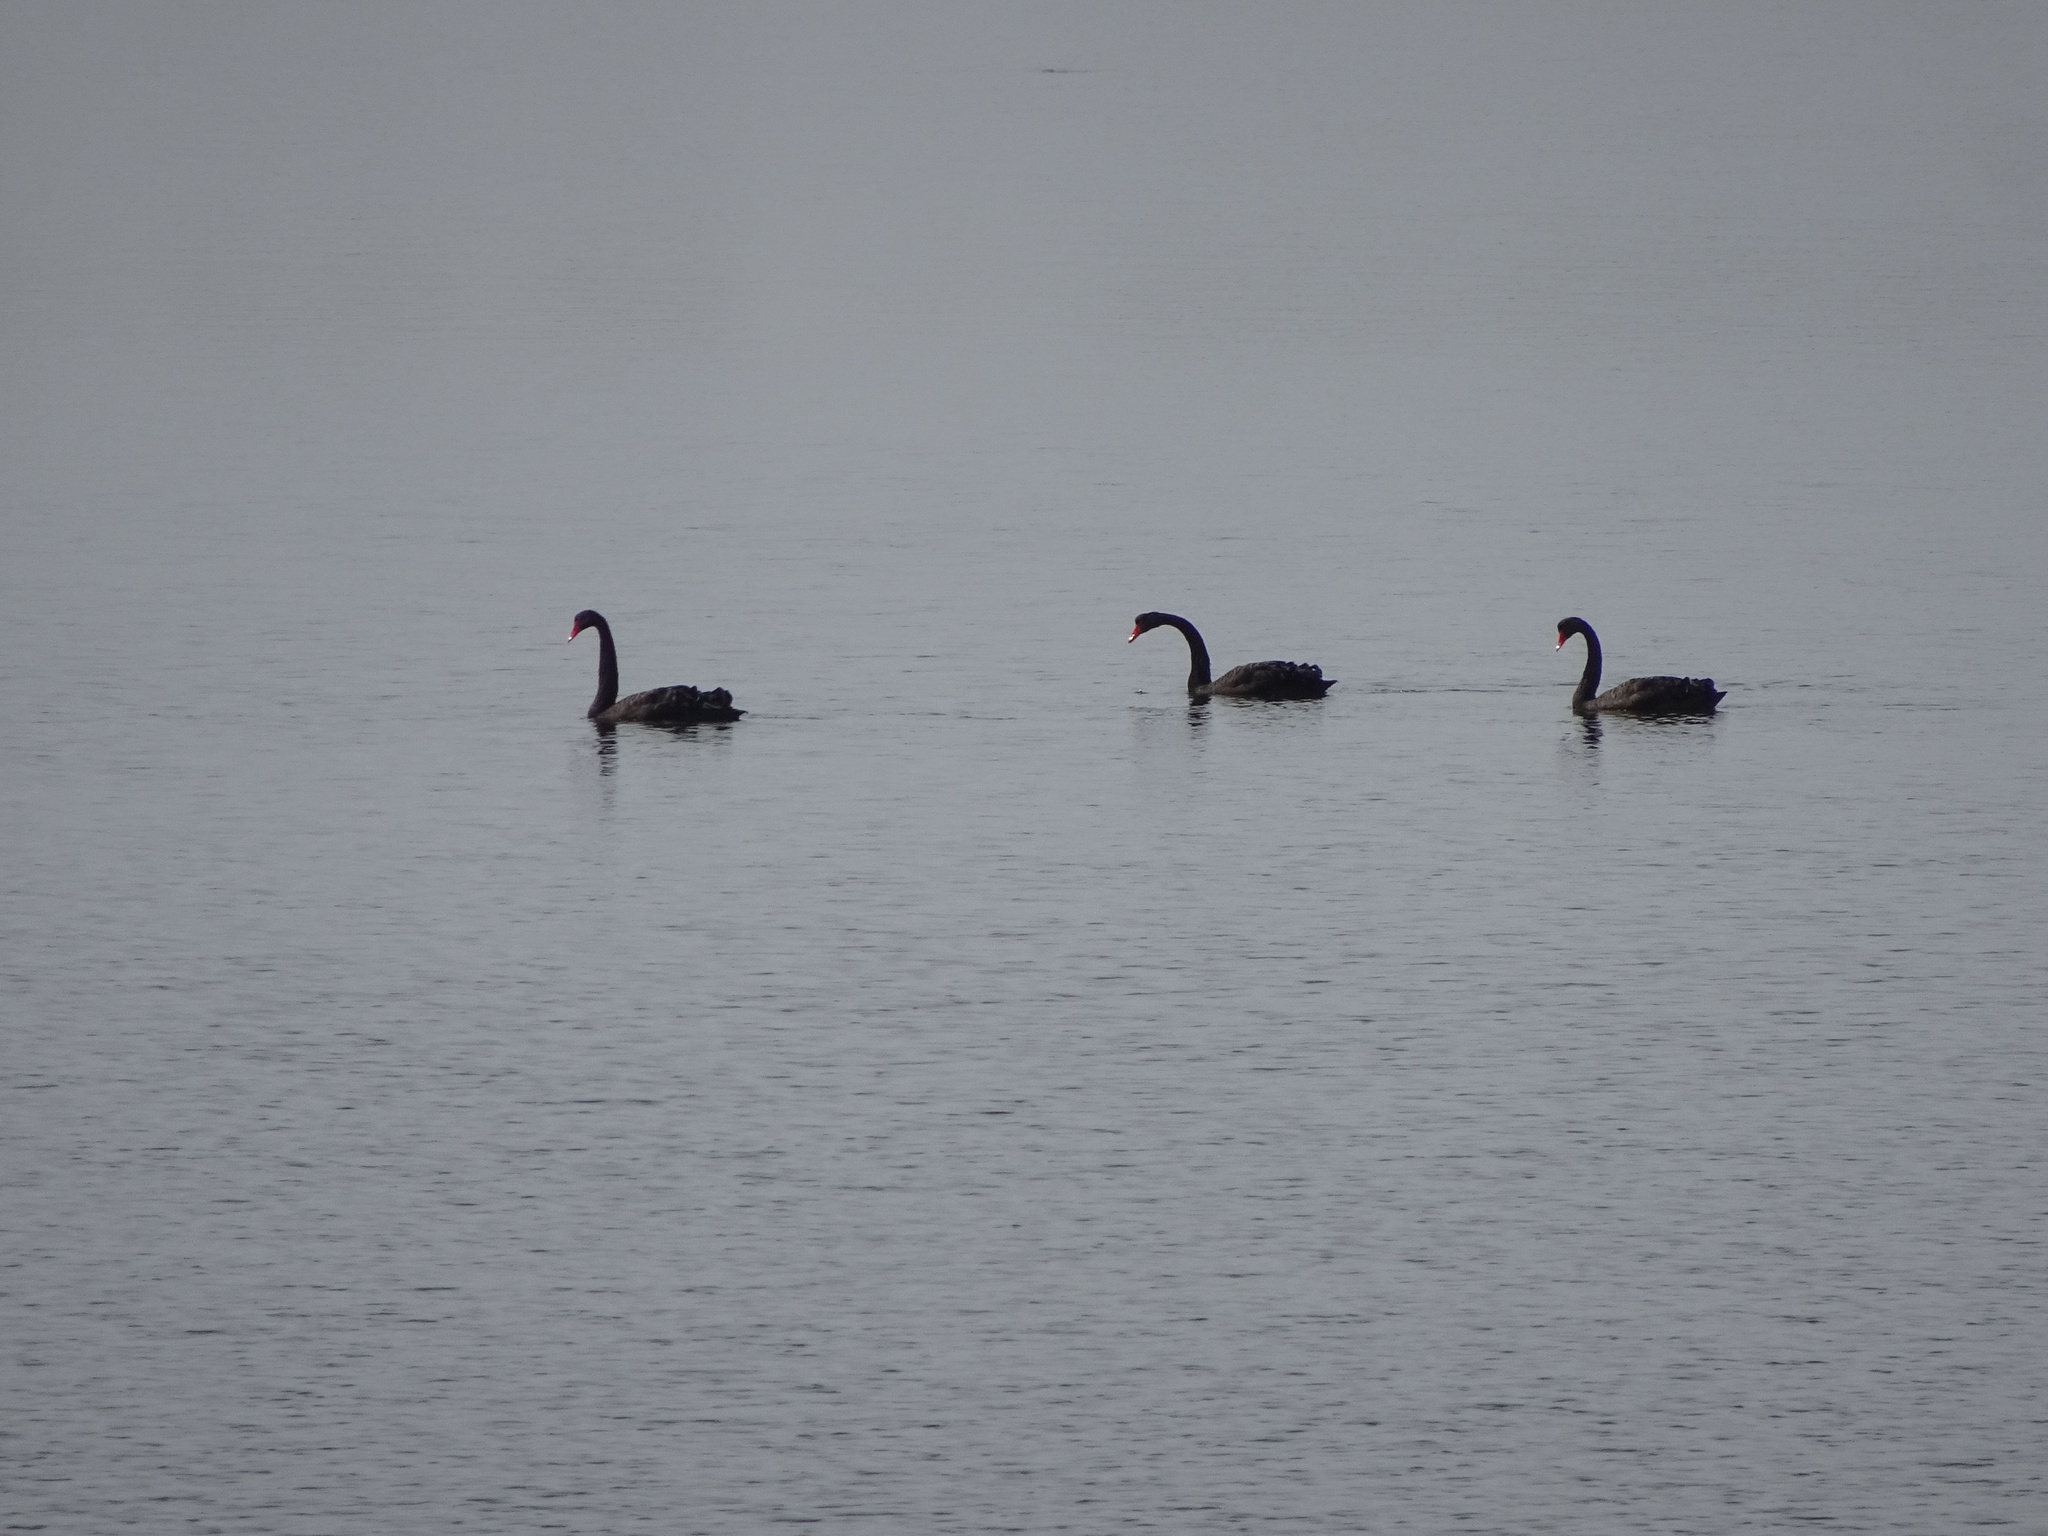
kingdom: Animalia
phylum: Chordata
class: Aves
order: Anseriformes
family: Anatidae
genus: Cygnus
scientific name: Cygnus atratus
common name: Black swan
